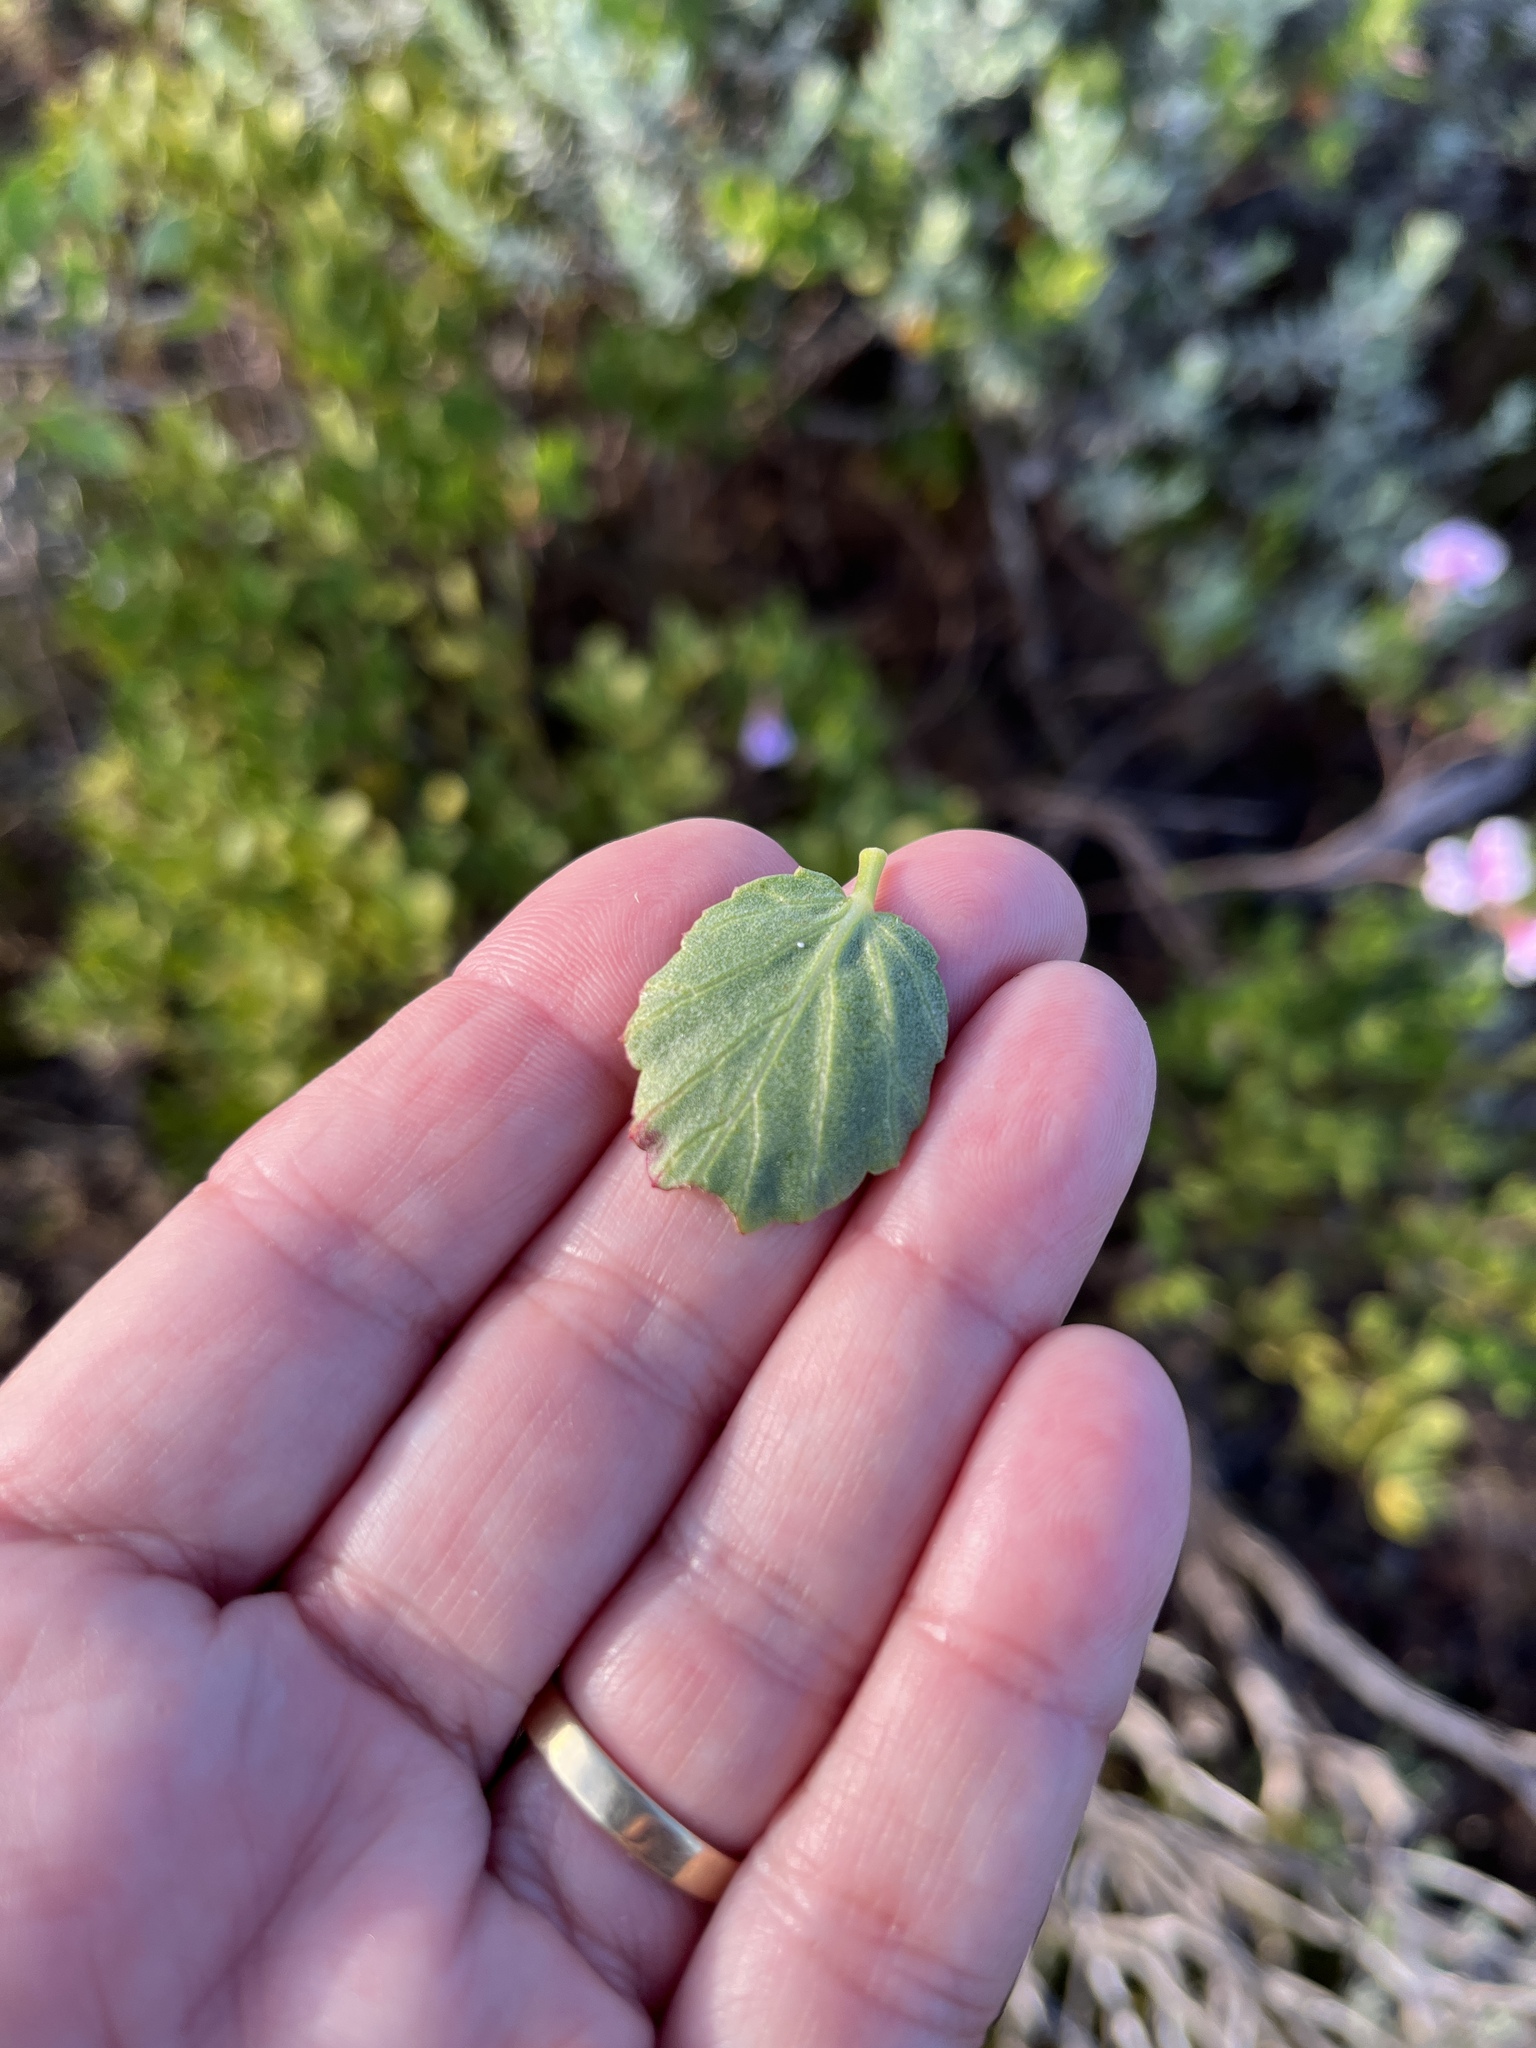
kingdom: Plantae
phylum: Tracheophyta
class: Magnoliopsida
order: Geraniales
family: Geraniaceae
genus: Pelargonium
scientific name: Pelargonium betulinum
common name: Birch-leaf pelargonium
